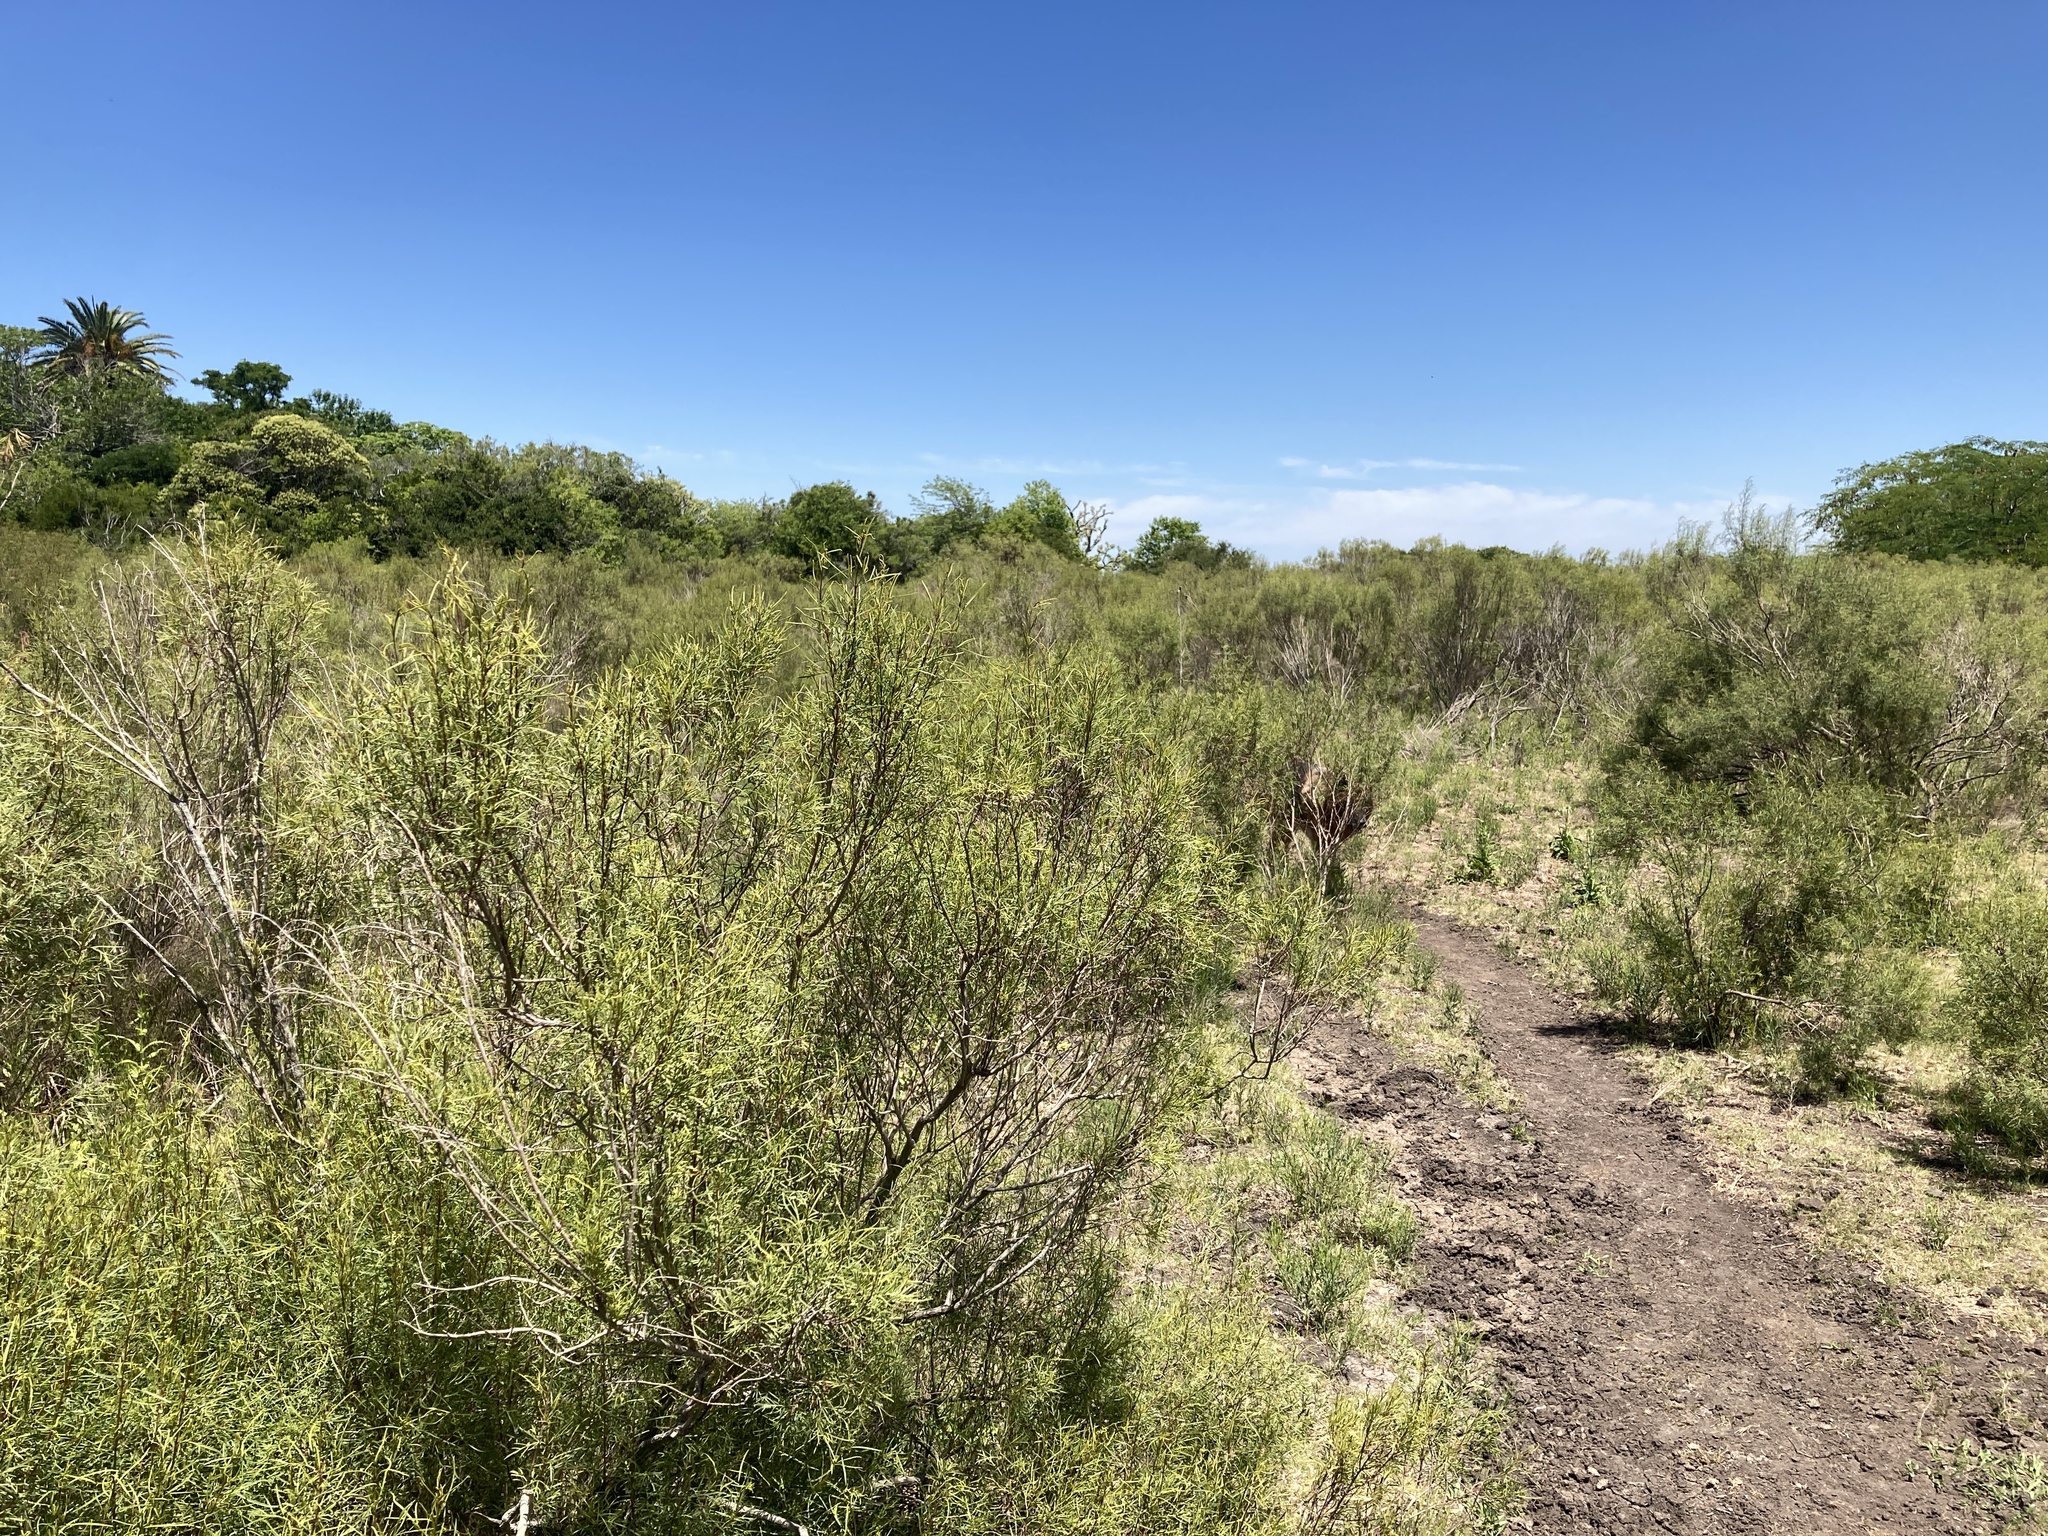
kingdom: Plantae
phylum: Tracheophyta
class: Magnoliopsida
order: Asterales
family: Asteraceae
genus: Acanthostyles
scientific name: Acanthostyles buniifolius
